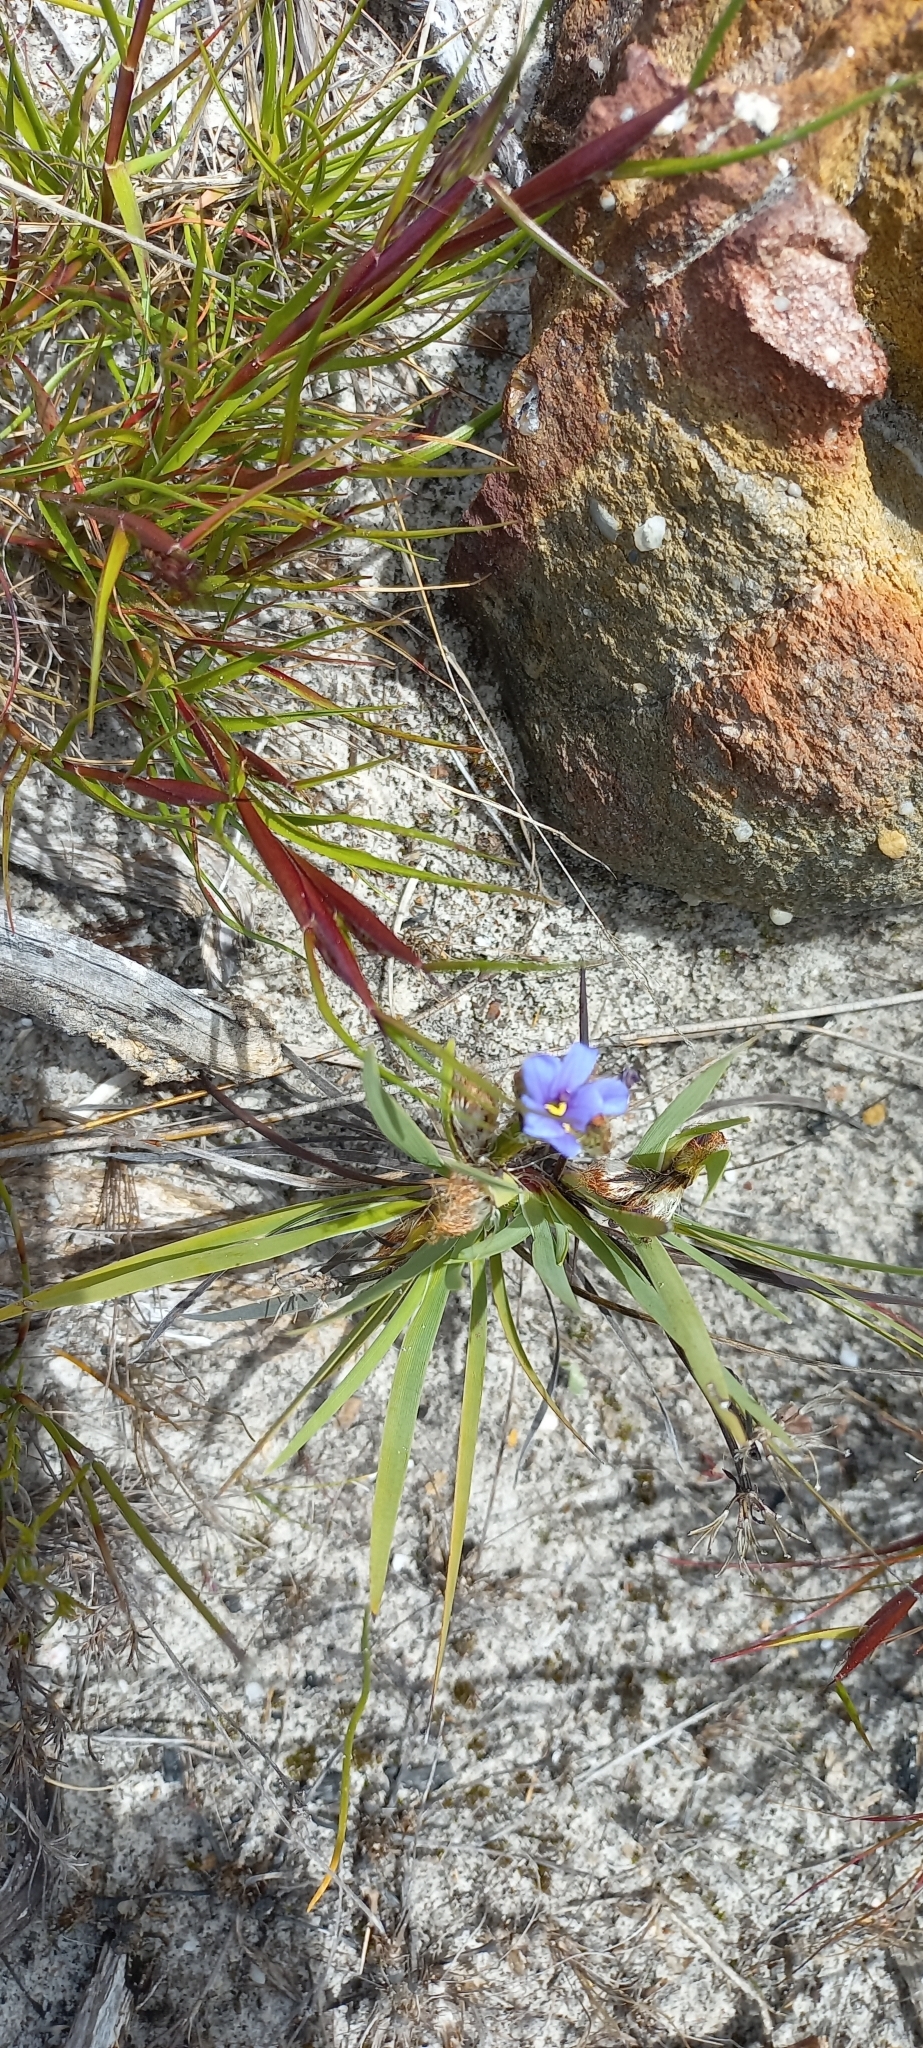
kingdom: Plantae
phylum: Tracheophyta
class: Liliopsida
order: Asparagales
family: Iridaceae
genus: Aristea
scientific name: Aristea africana
